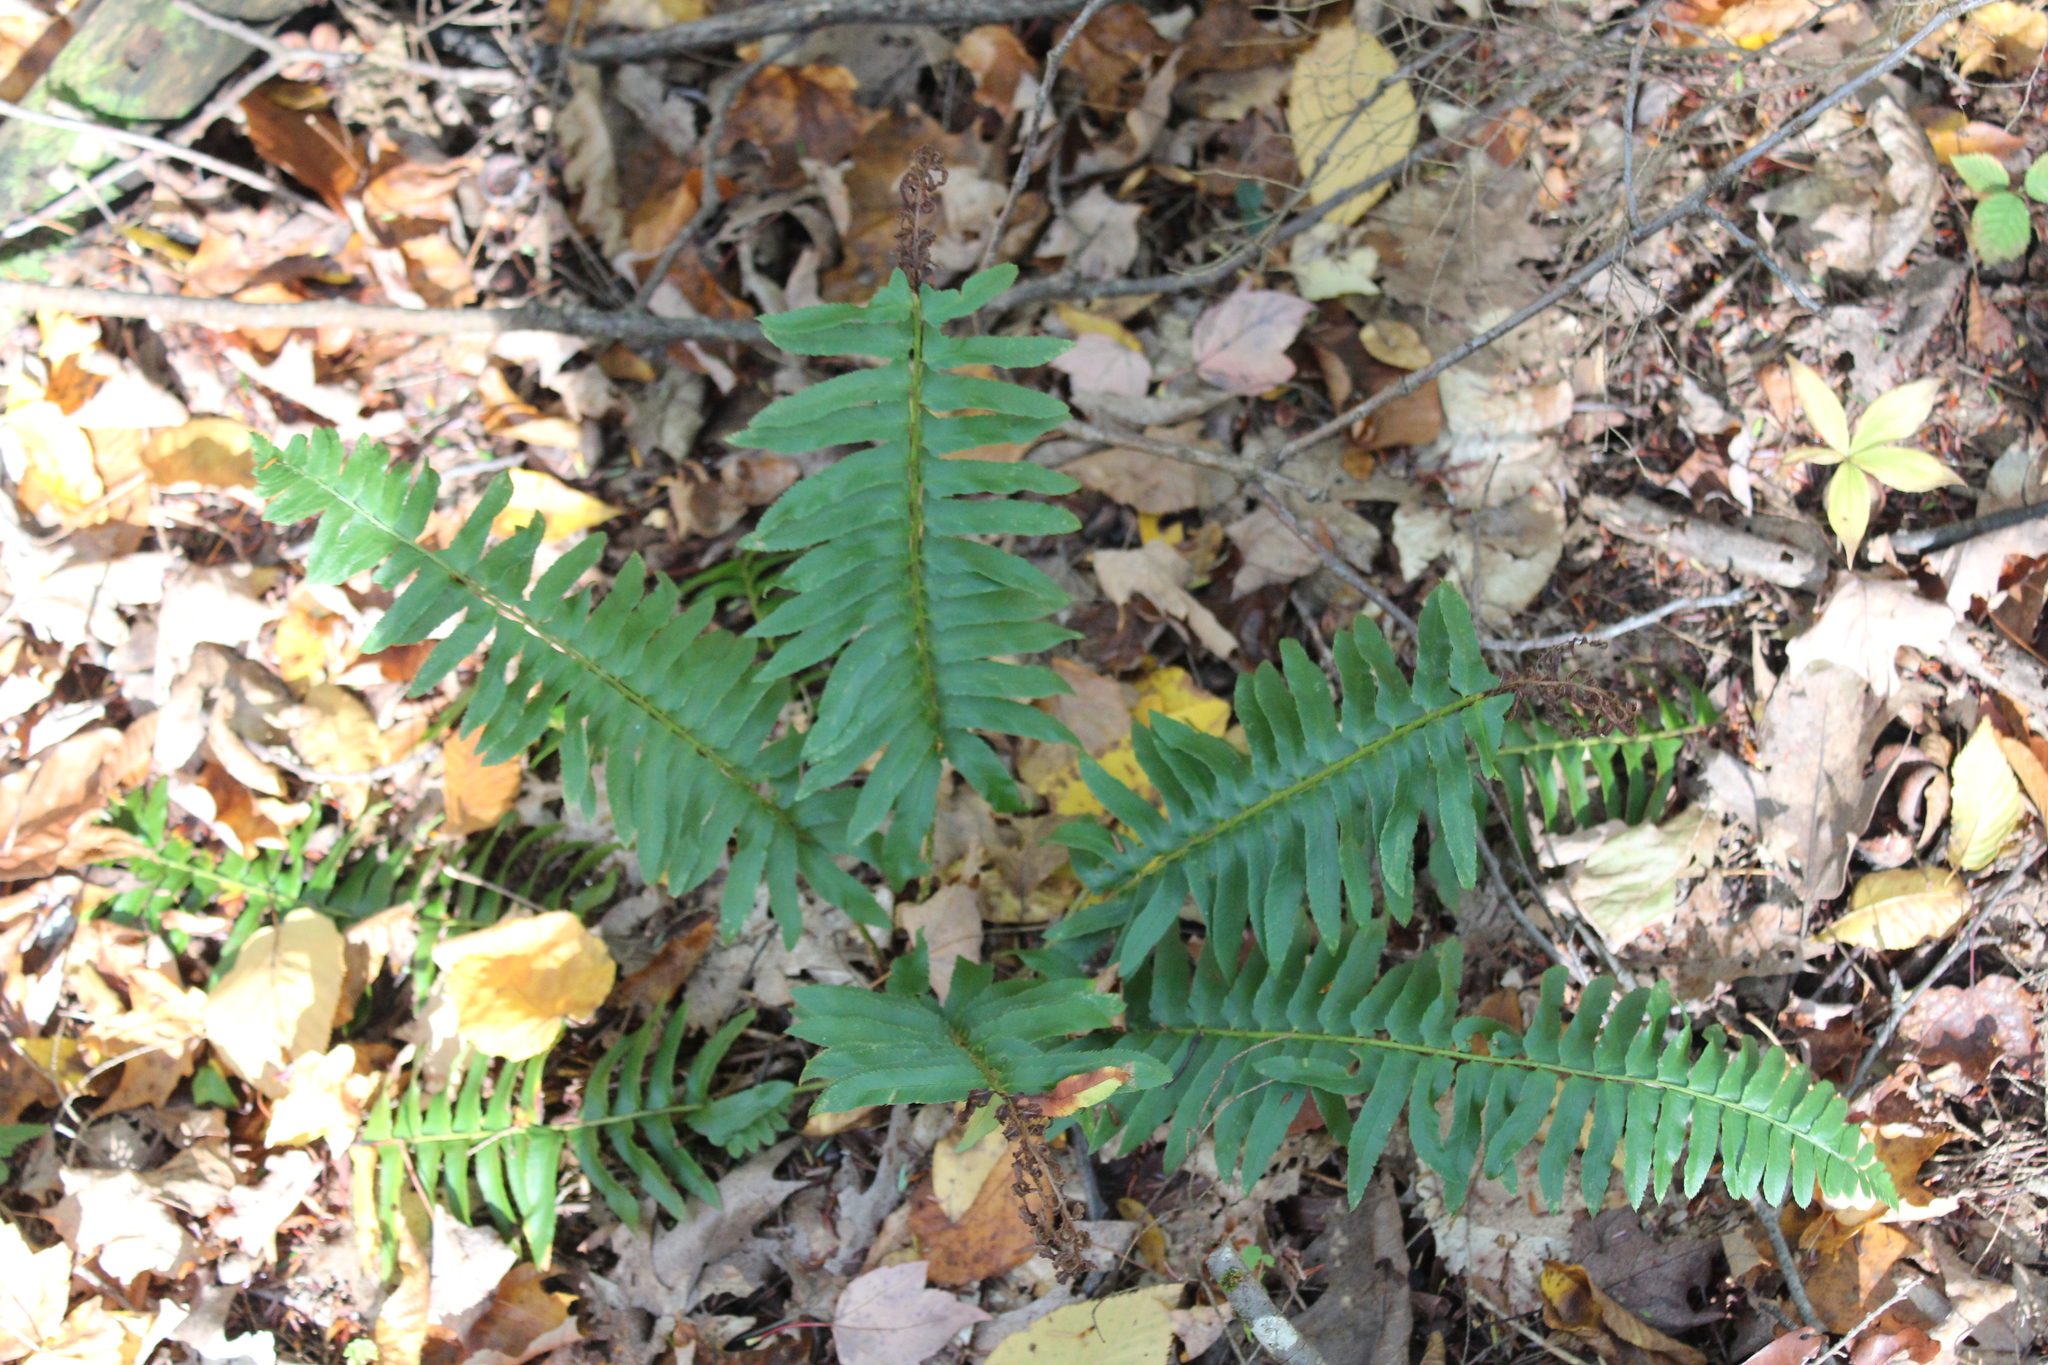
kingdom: Plantae
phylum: Tracheophyta
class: Polypodiopsida
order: Polypodiales
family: Dryopteridaceae
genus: Polystichum
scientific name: Polystichum acrostichoides
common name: Christmas fern
